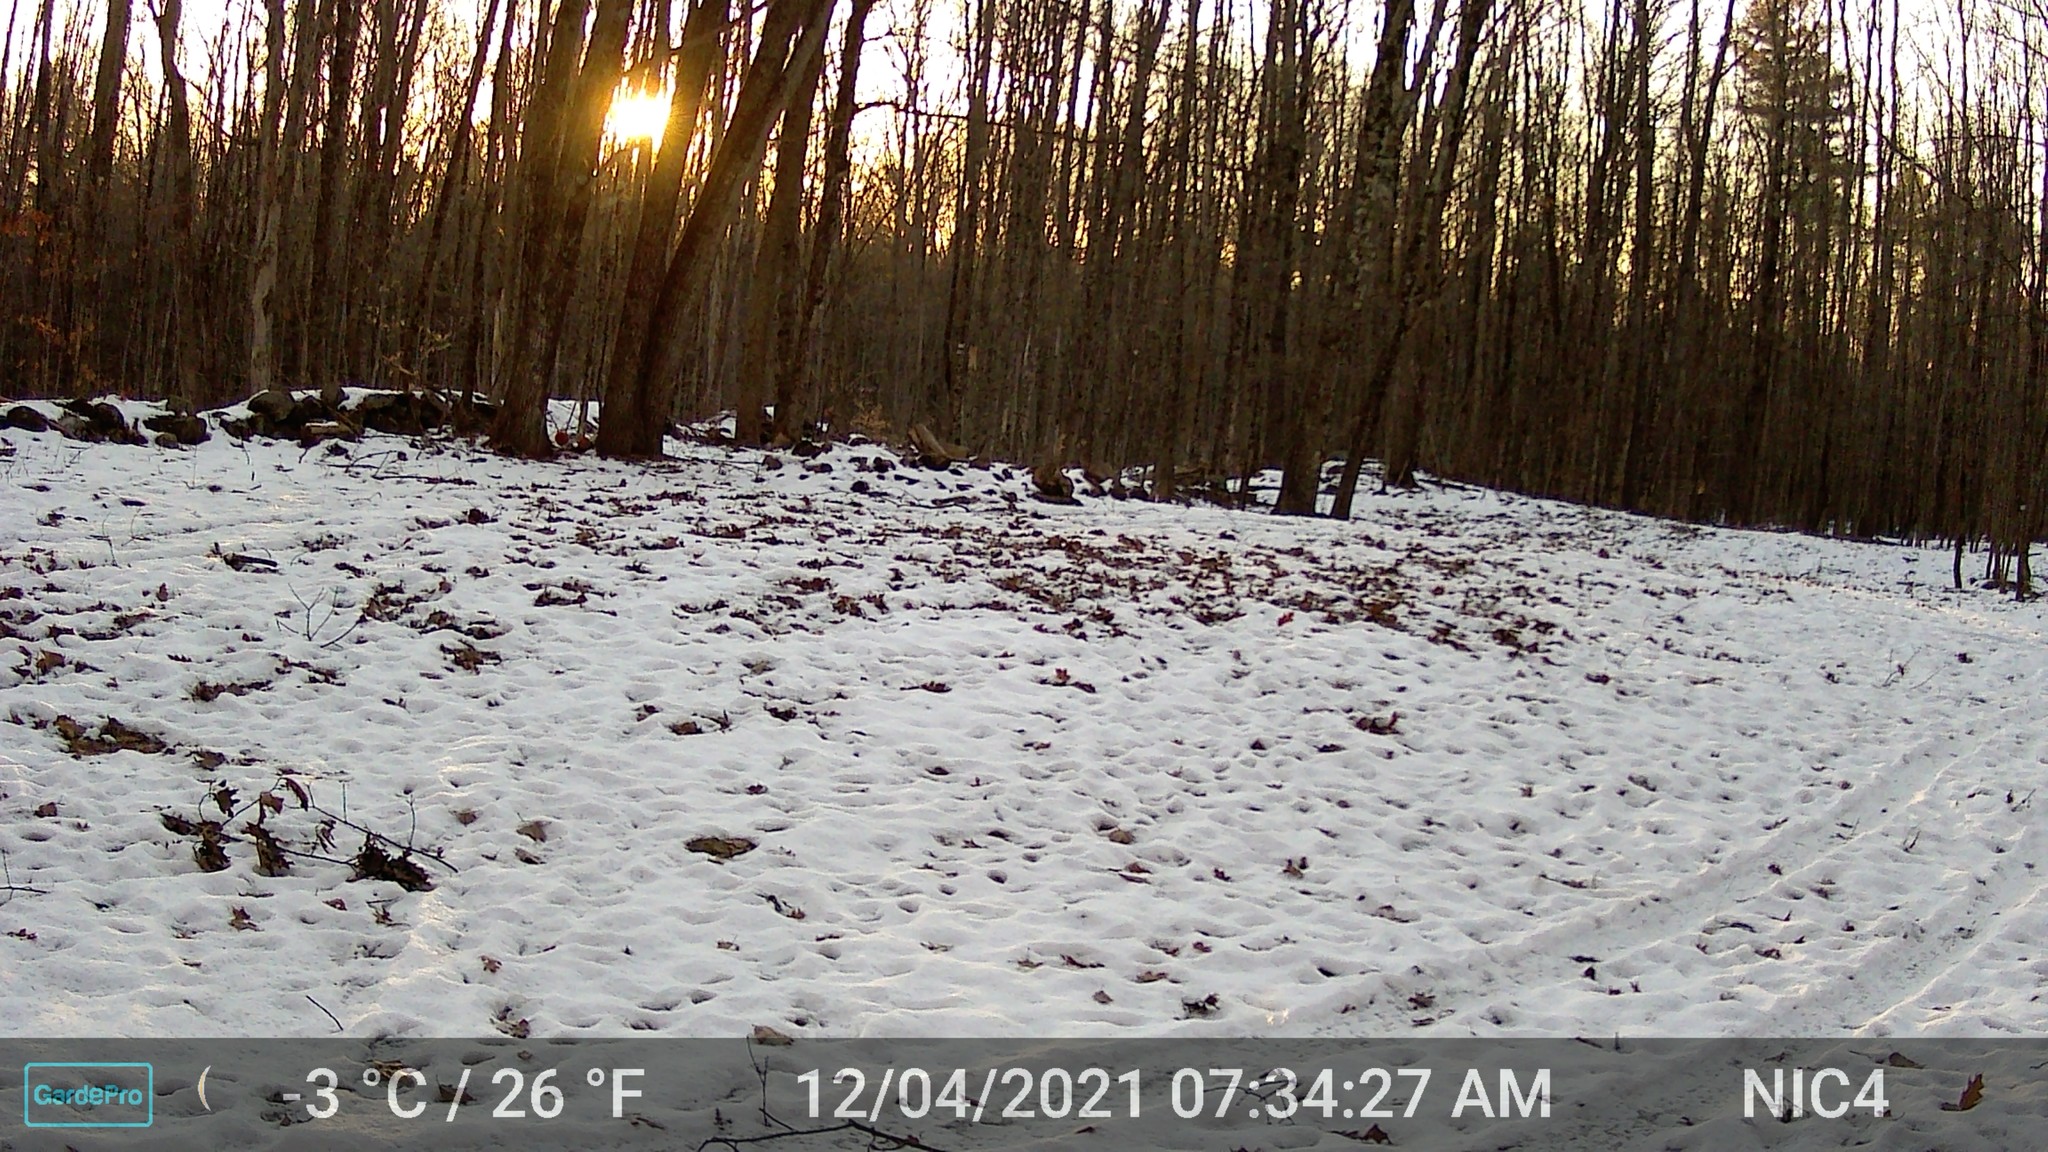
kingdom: Animalia
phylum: Chordata
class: Mammalia
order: Rodentia
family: Sciuridae
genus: Sciurus
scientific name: Sciurus carolinensis
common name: Eastern gray squirrel
